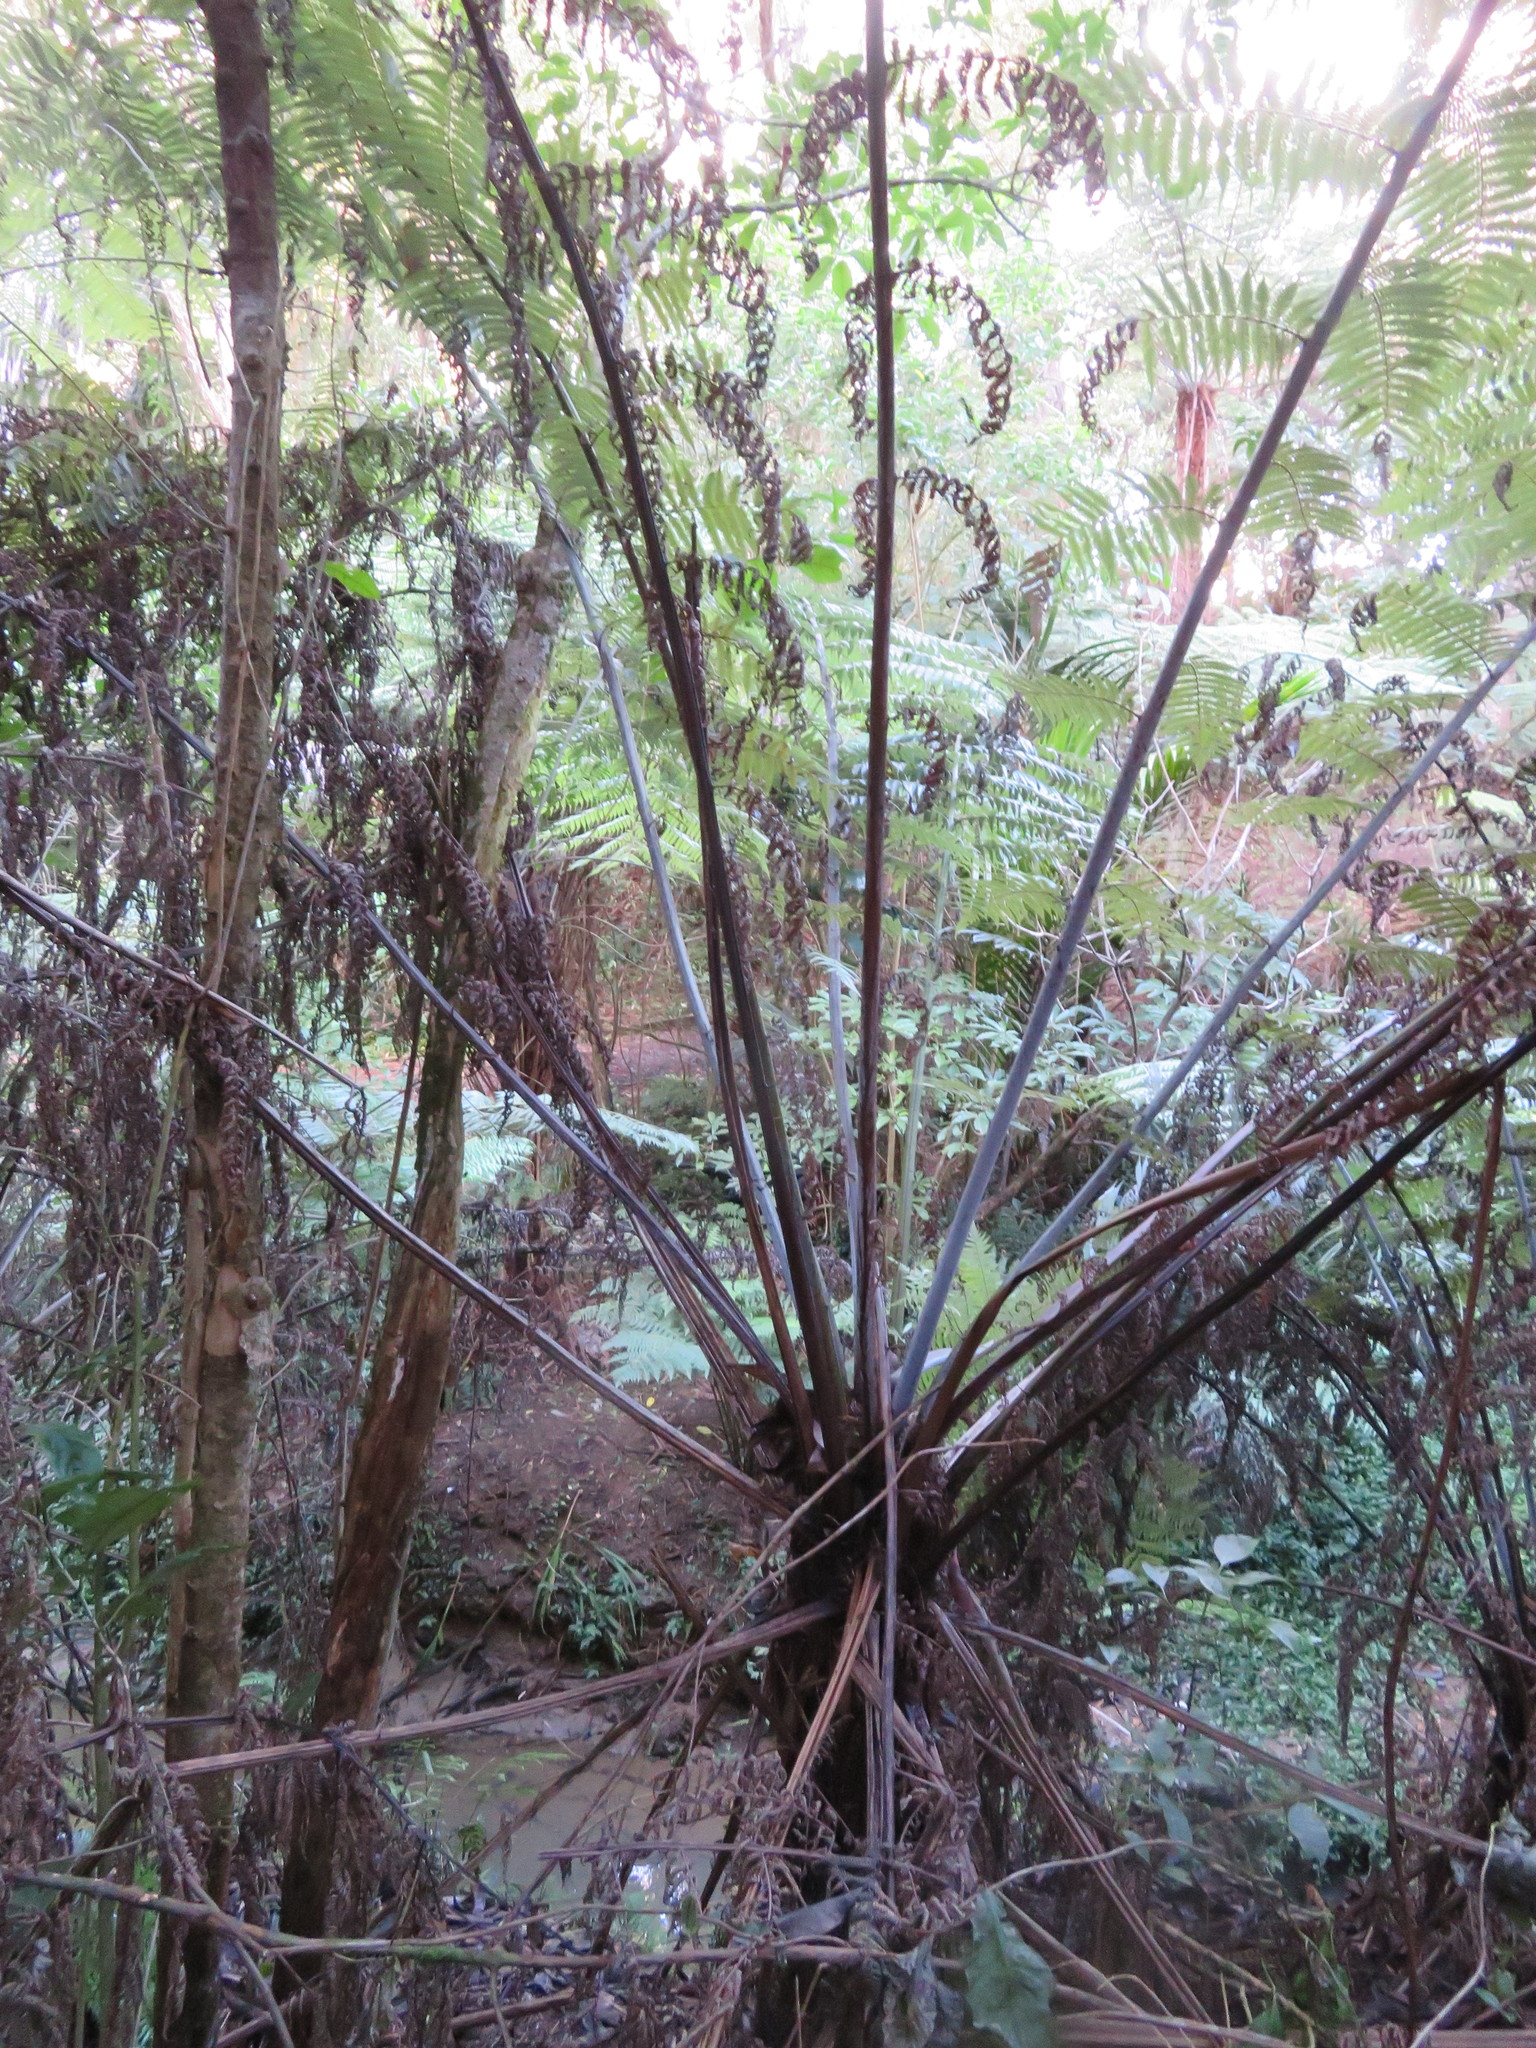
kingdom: Plantae
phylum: Tracheophyta
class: Polypodiopsida
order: Cyatheales
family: Cyatheaceae
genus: Alsophila
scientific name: Alsophila dealbata
